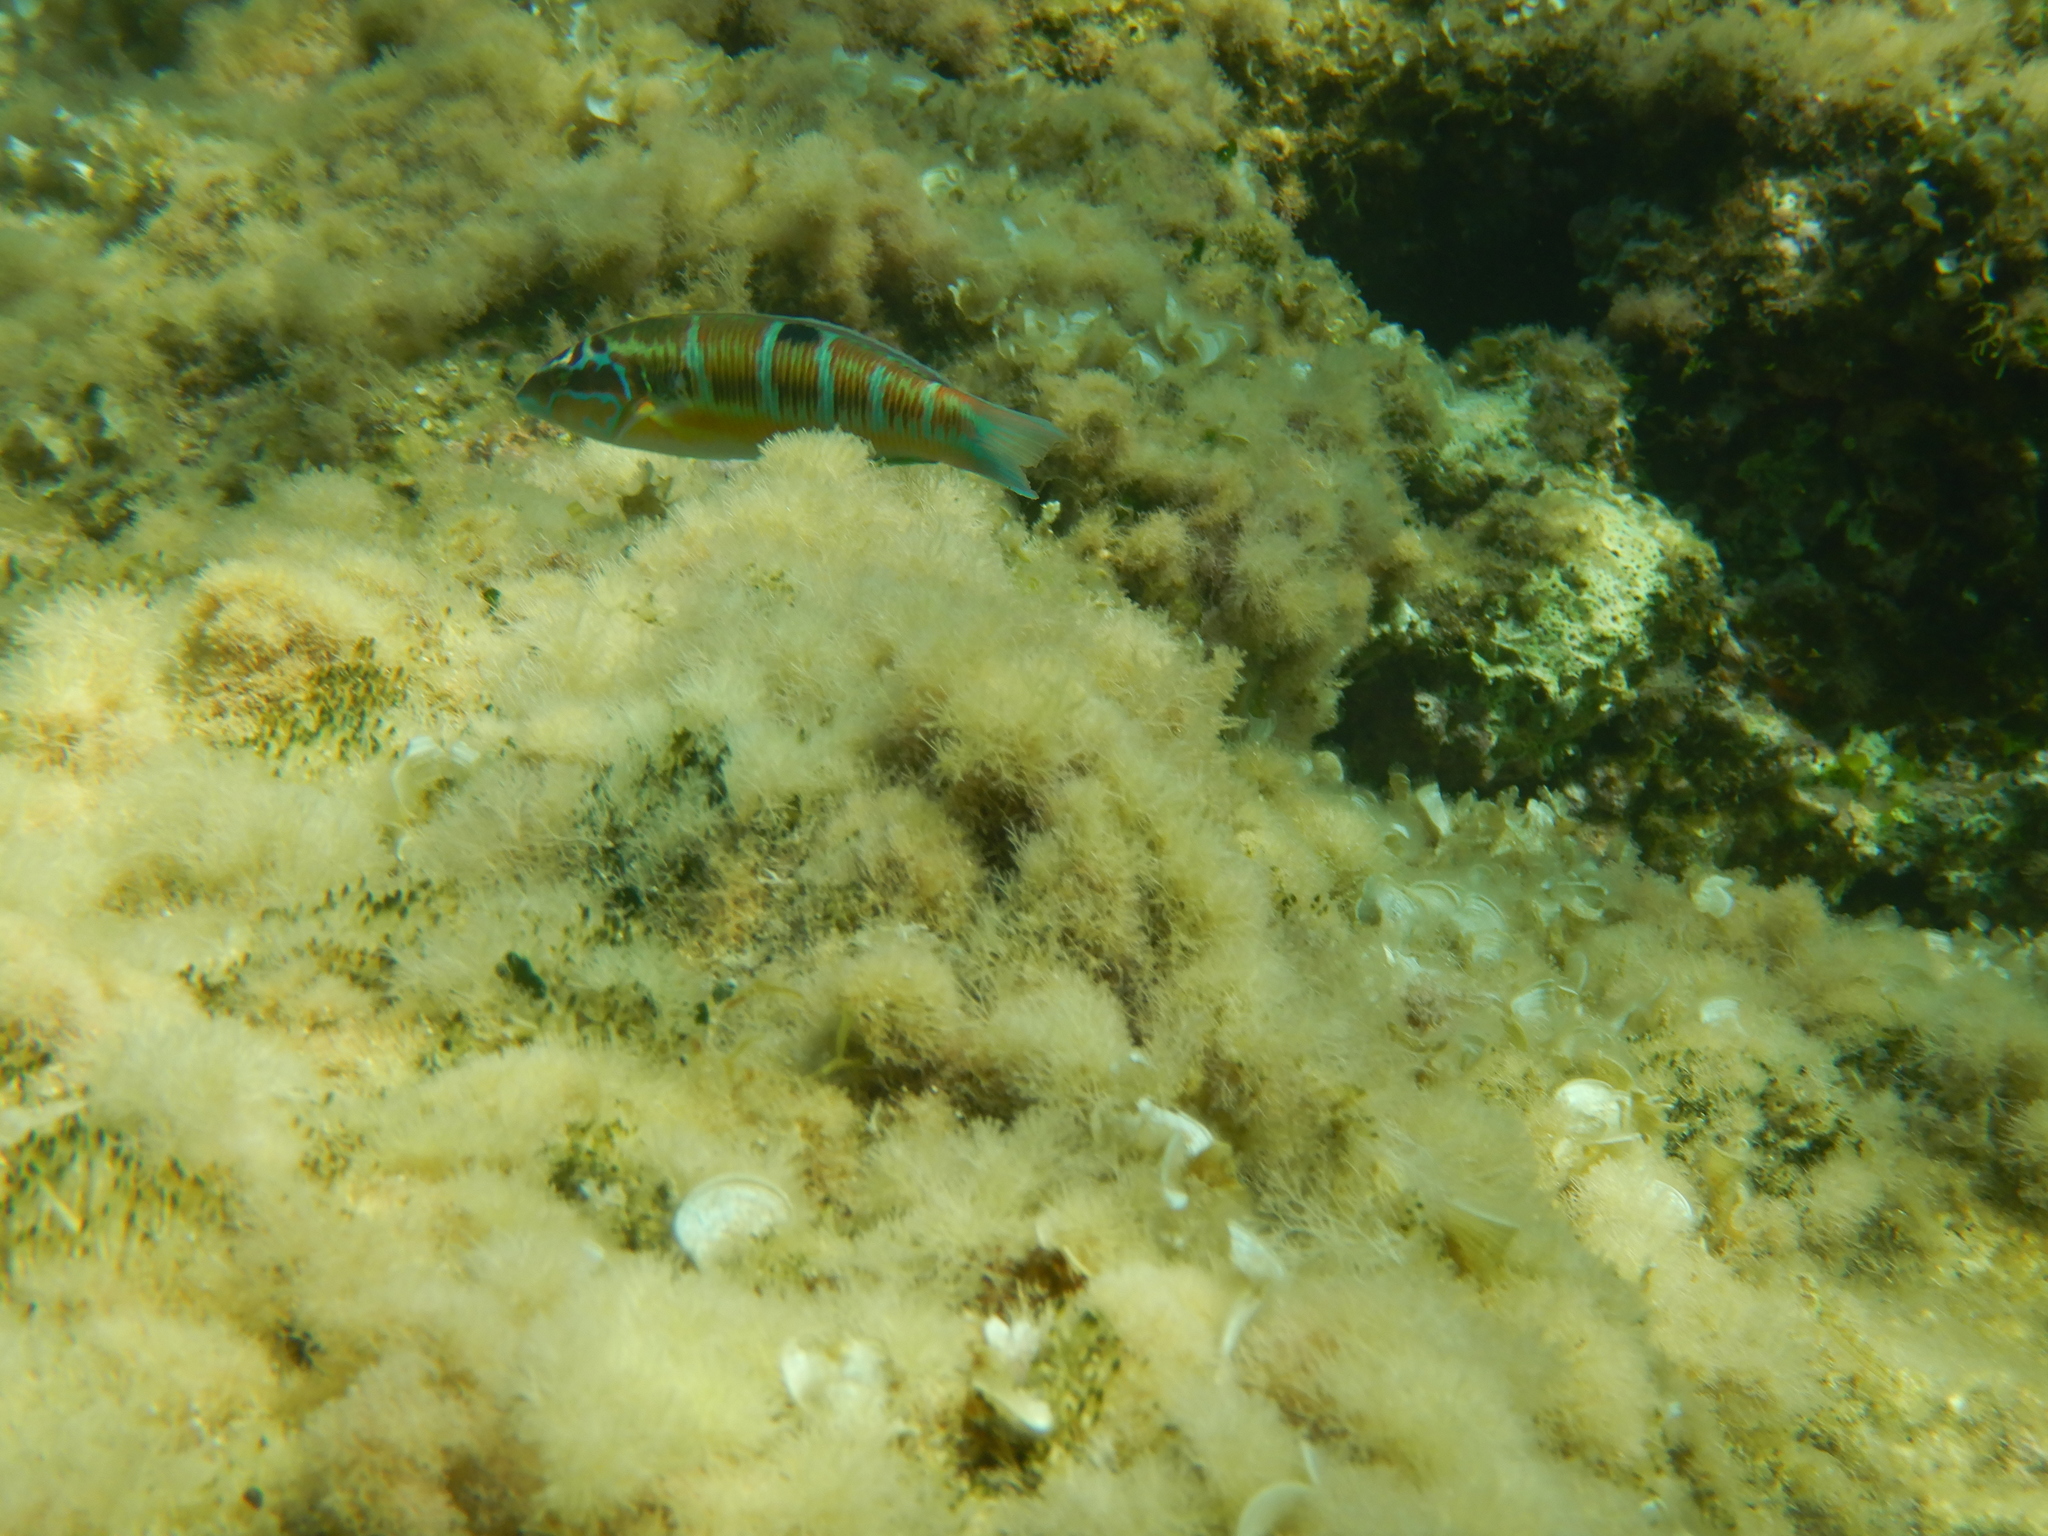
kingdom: Animalia
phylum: Chordata
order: Perciformes
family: Labridae
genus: Thalassoma
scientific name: Thalassoma pavo
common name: Ornate wrasse
